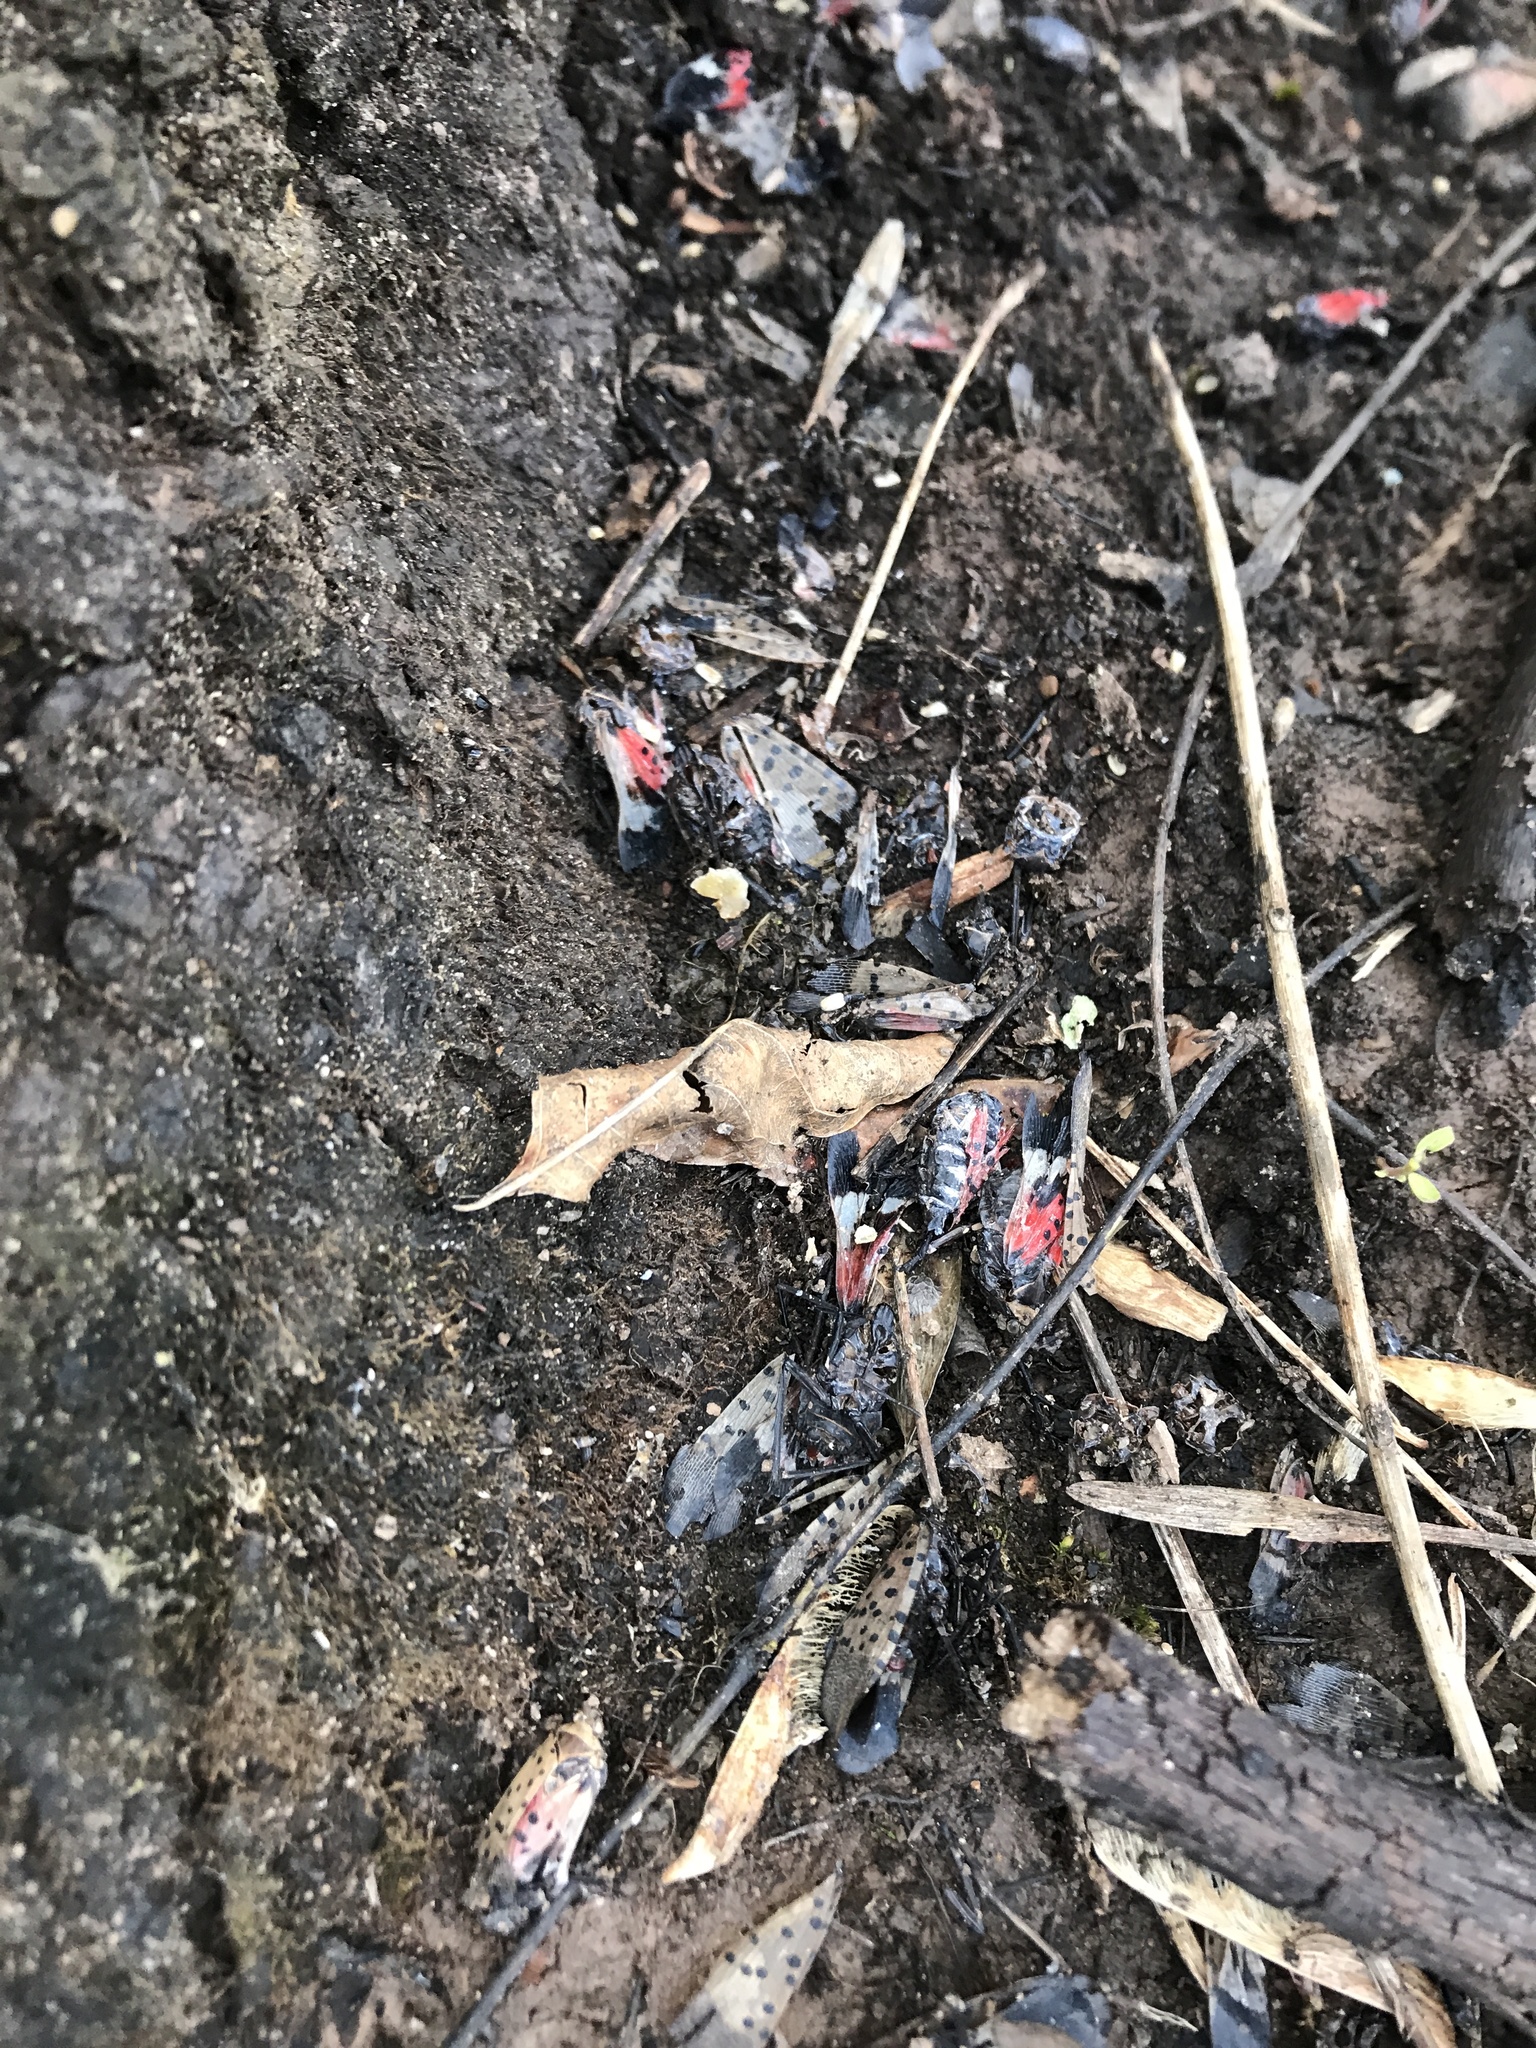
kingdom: Animalia
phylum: Arthropoda
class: Insecta
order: Hemiptera
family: Fulgoridae
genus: Lycorma
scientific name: Lycorma delicatula
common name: Spotted lanternfly
